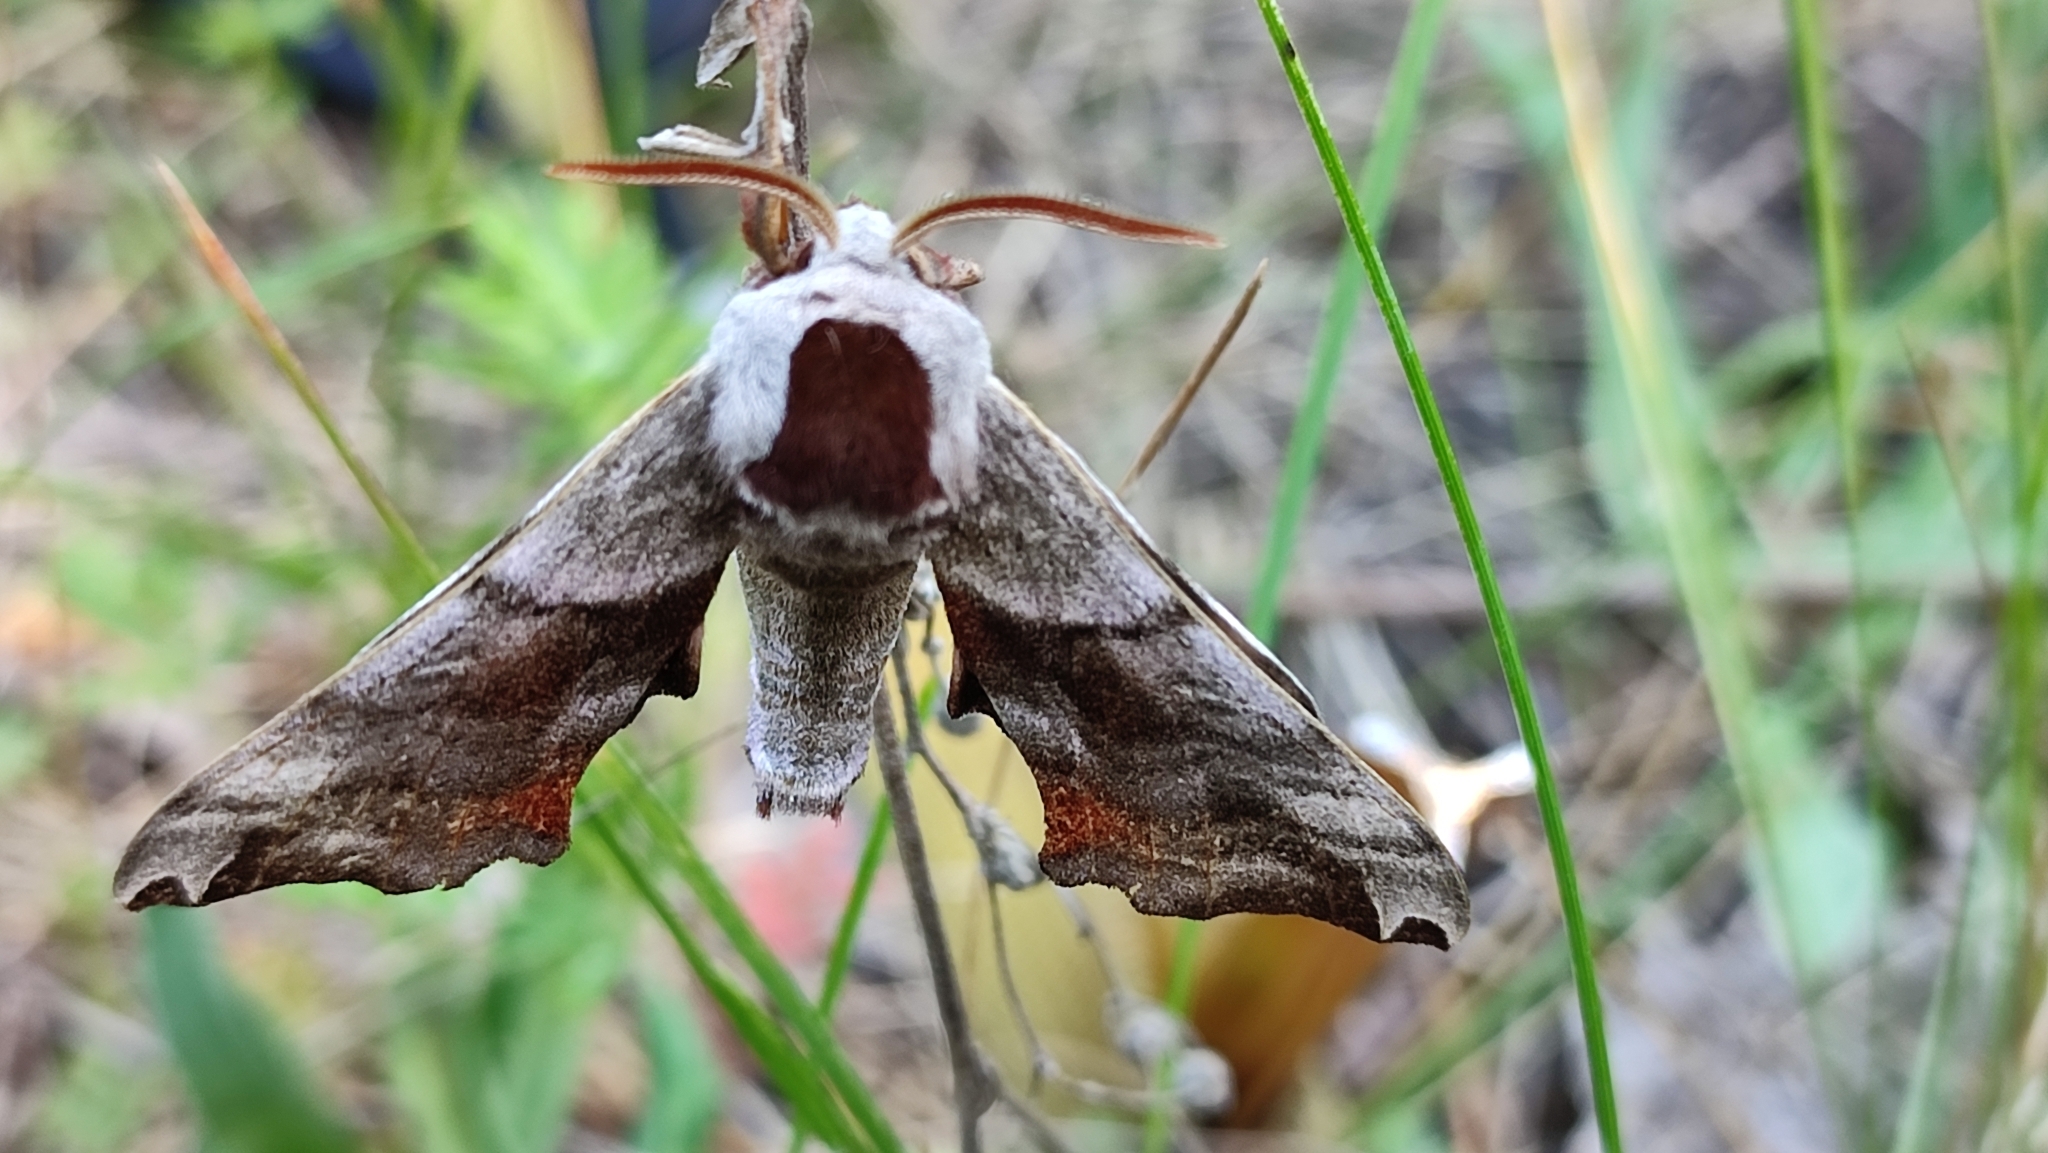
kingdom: Animalia
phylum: Arthropoda
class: Insecta
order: Lepidoptera
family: Sphingidae
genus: Smerinthus
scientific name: Smerinthus caecus
